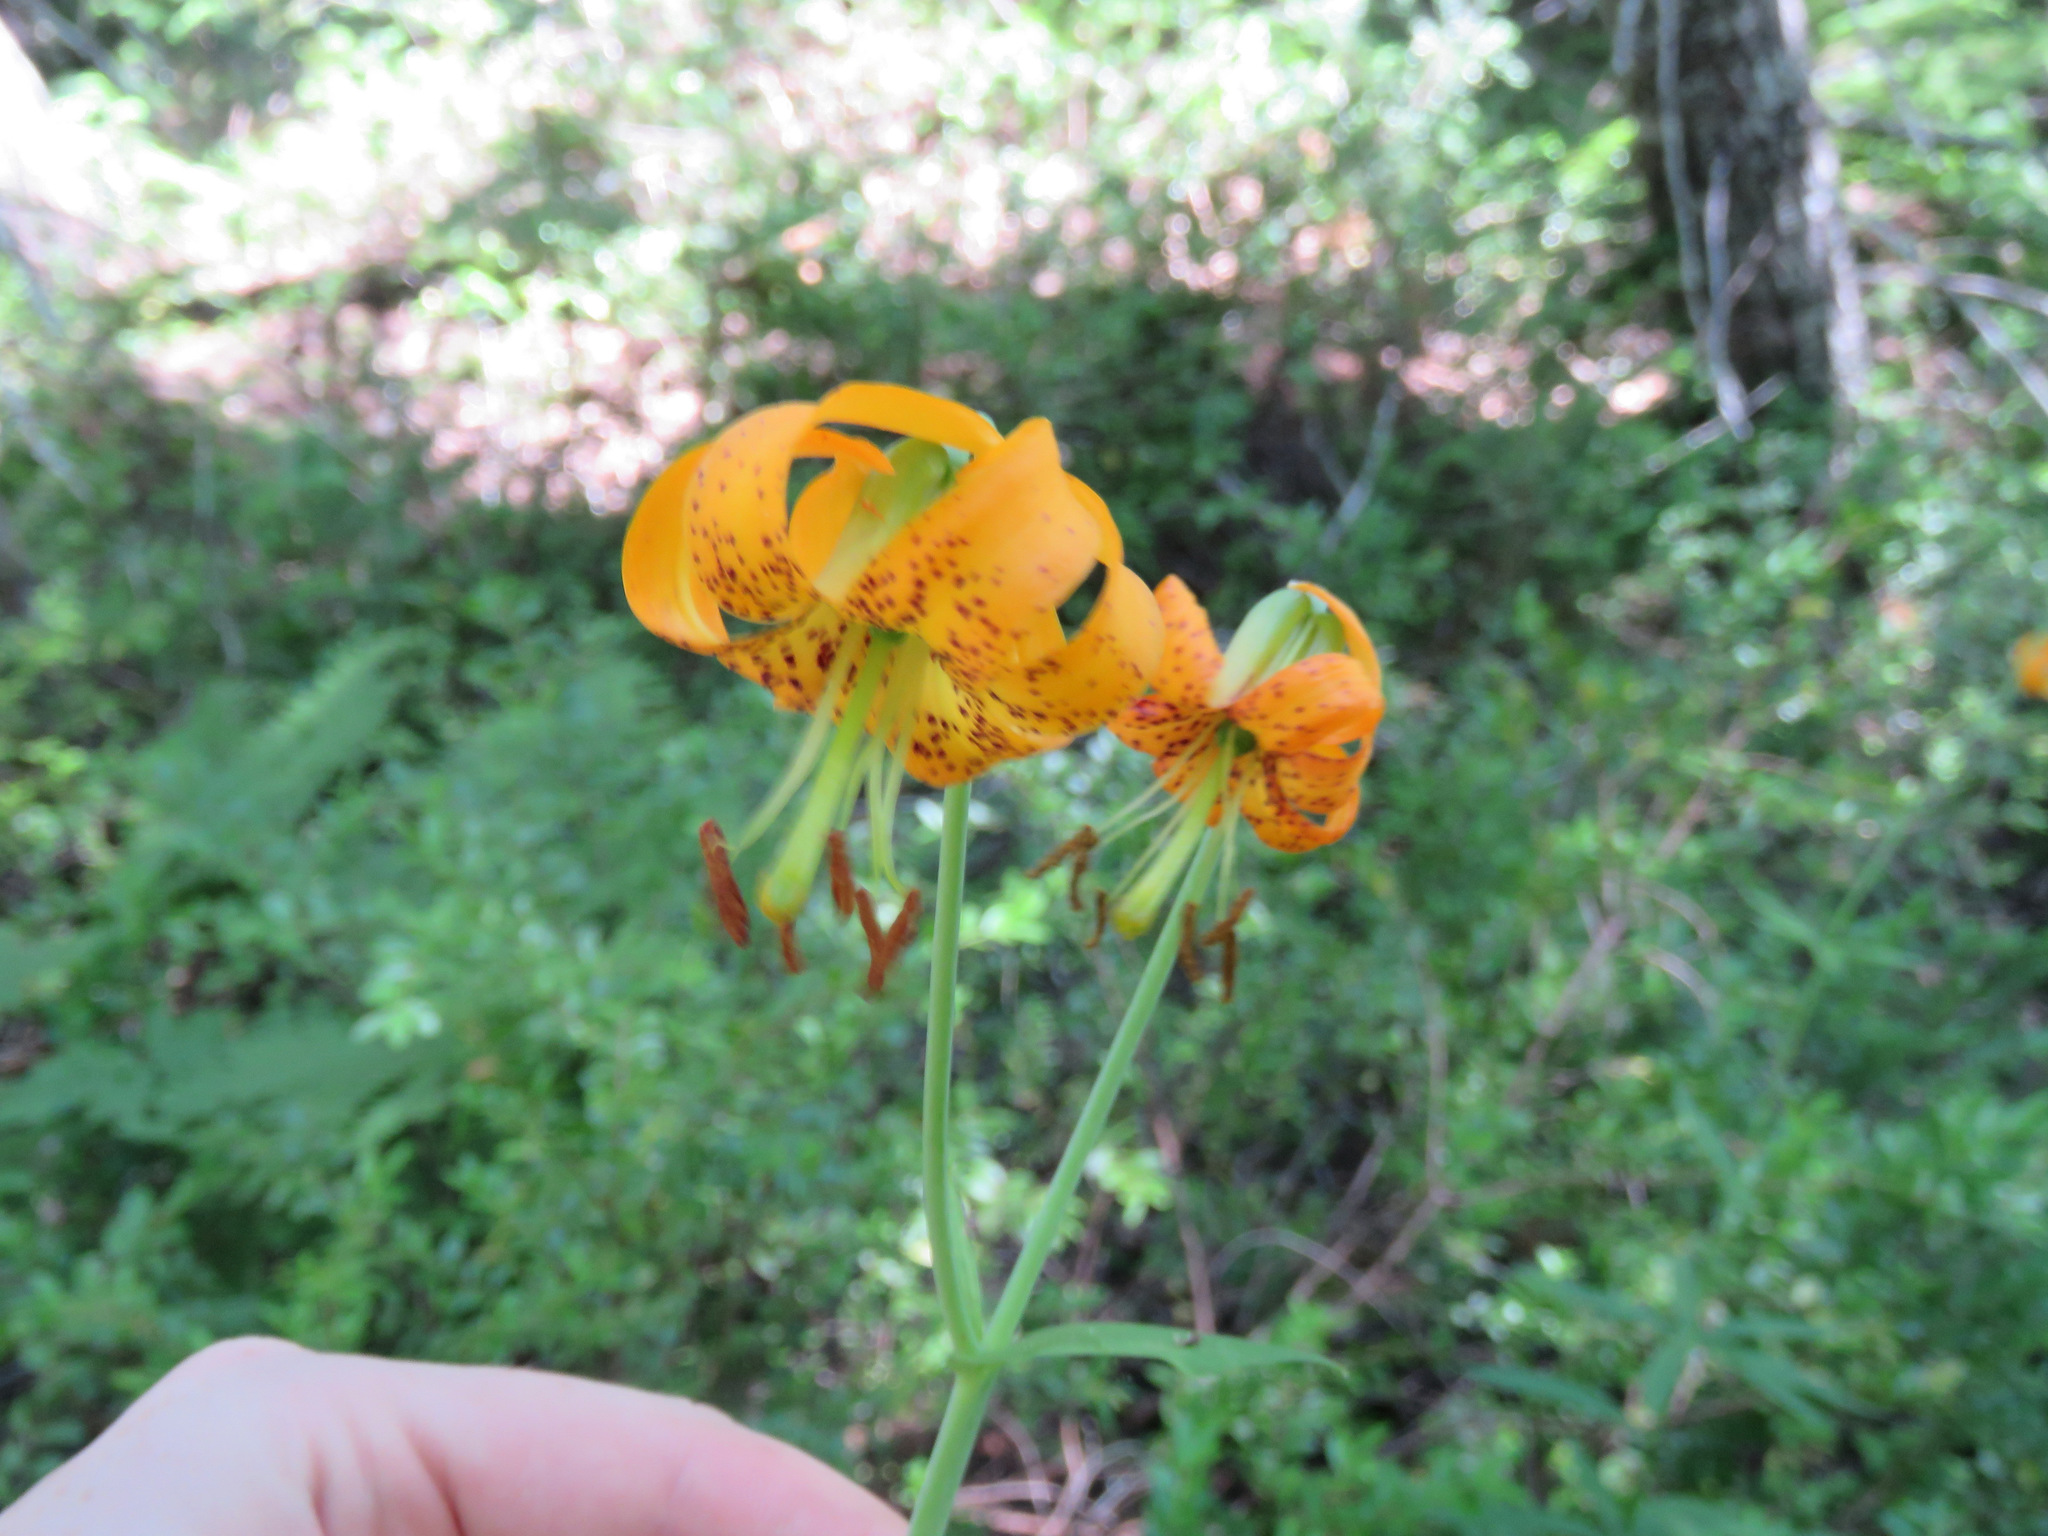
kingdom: Plantae
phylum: Tracheophyta
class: Liliopsida
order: Liliales
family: Liliaceae
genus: Lilium
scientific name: Lilium columbianum
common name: Columbia lily
